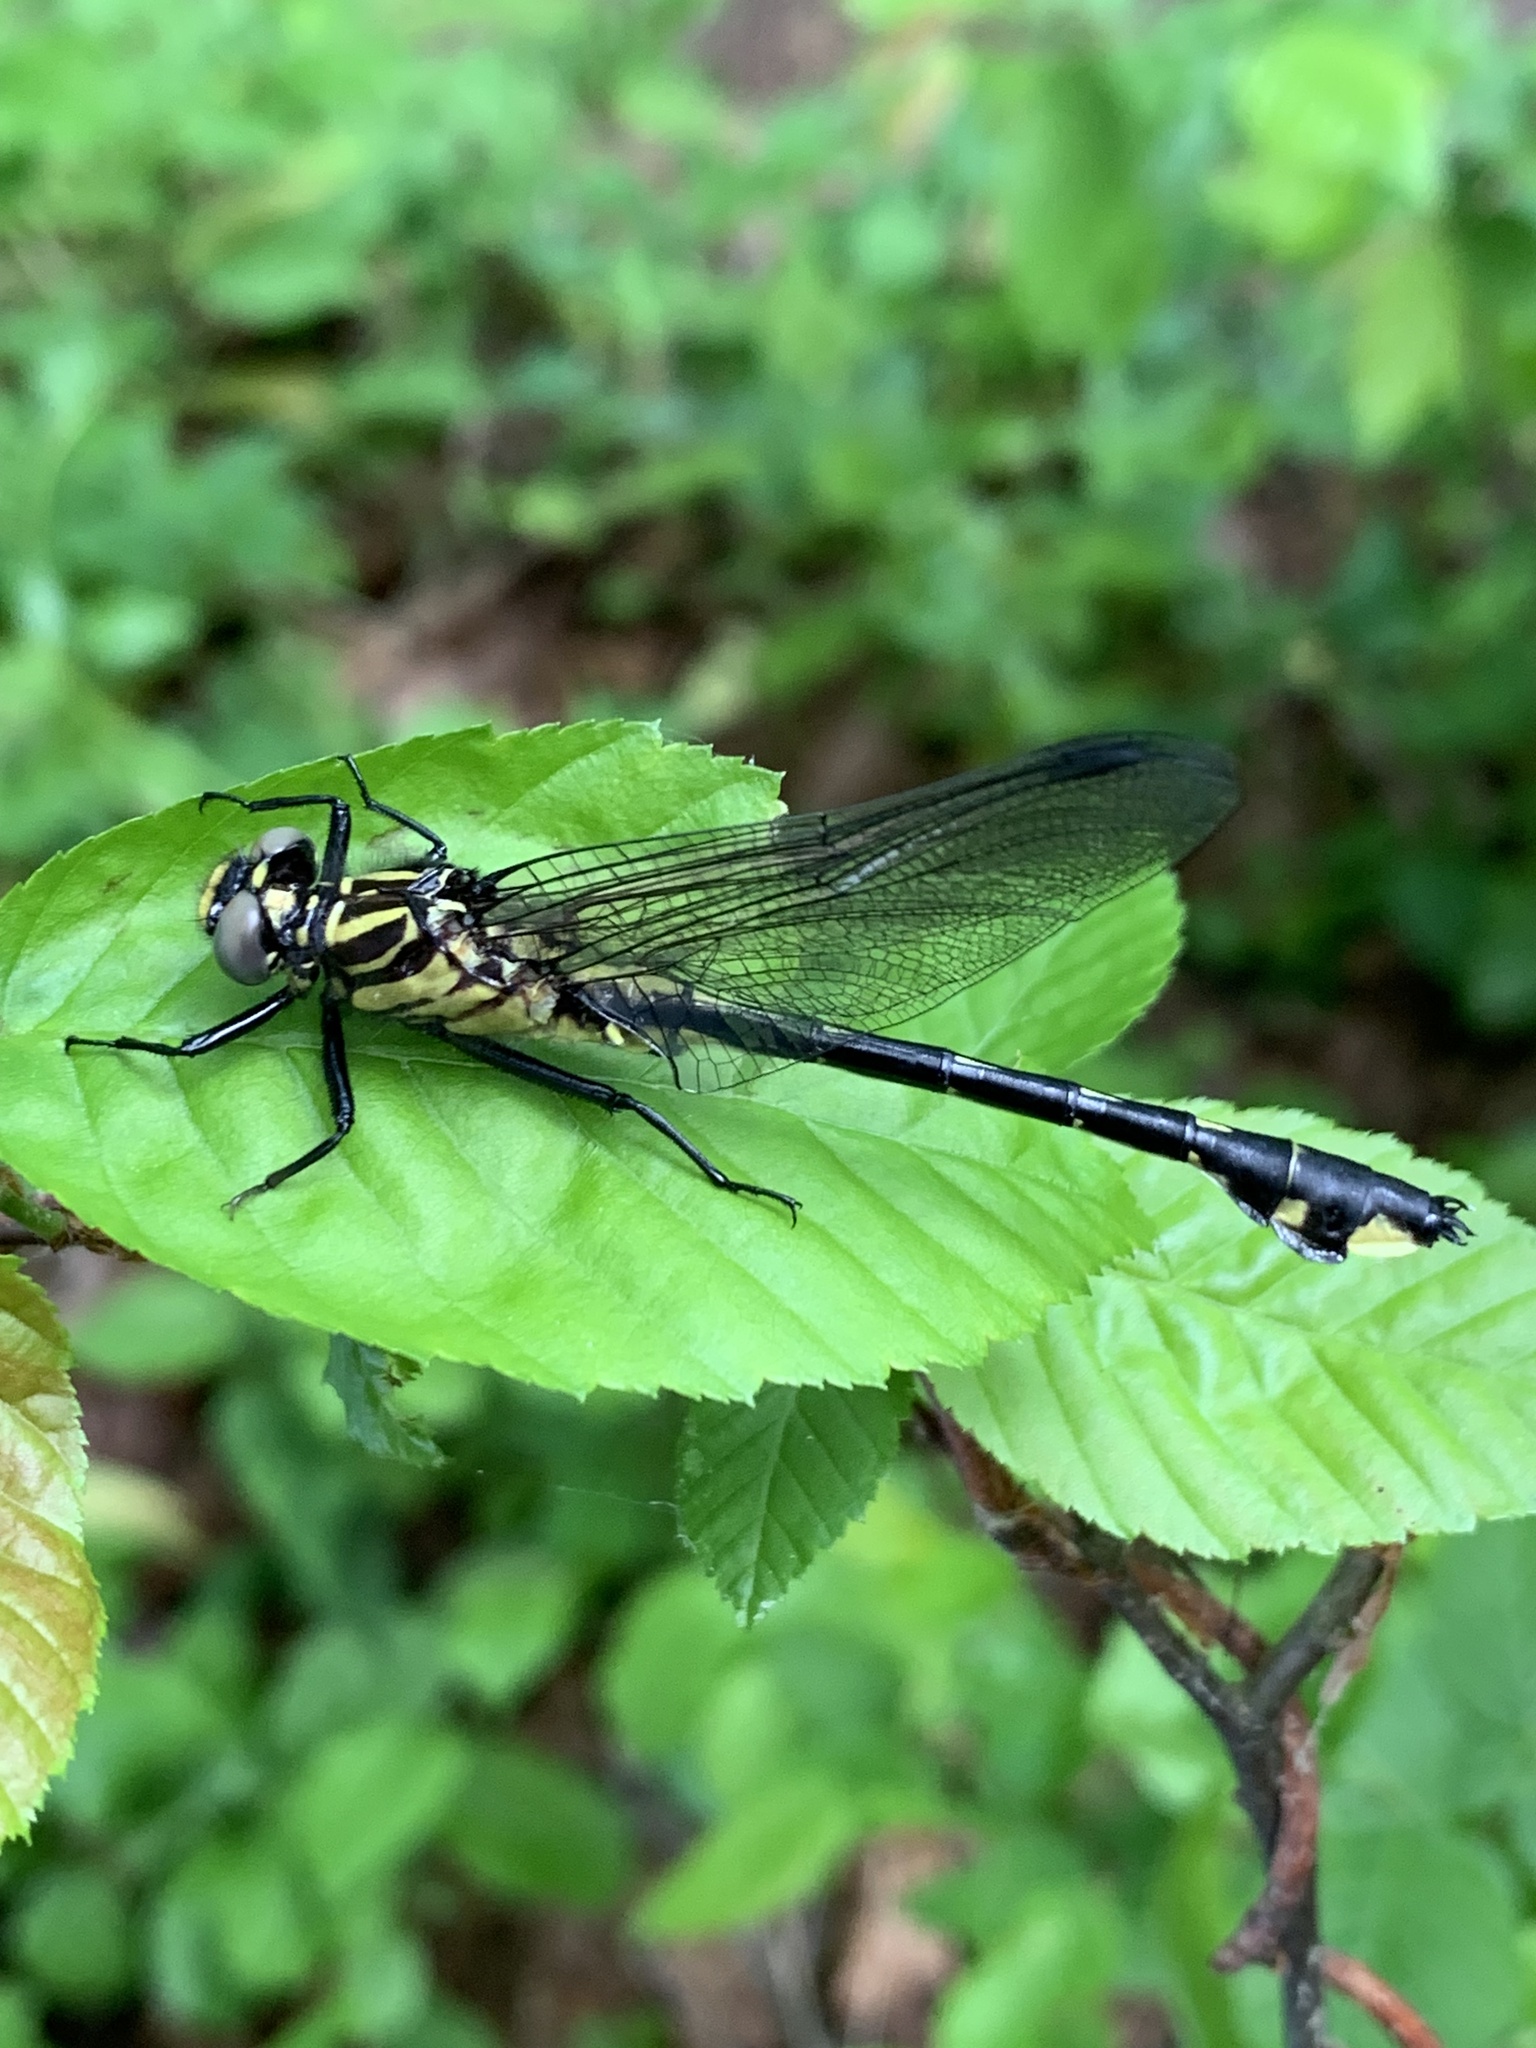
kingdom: Animalia
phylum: Arthropoda
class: Insecta
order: Odonata
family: Gomphidae
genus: Gomphurus
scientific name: Gomphurus vastus
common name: Cobra clubtail
